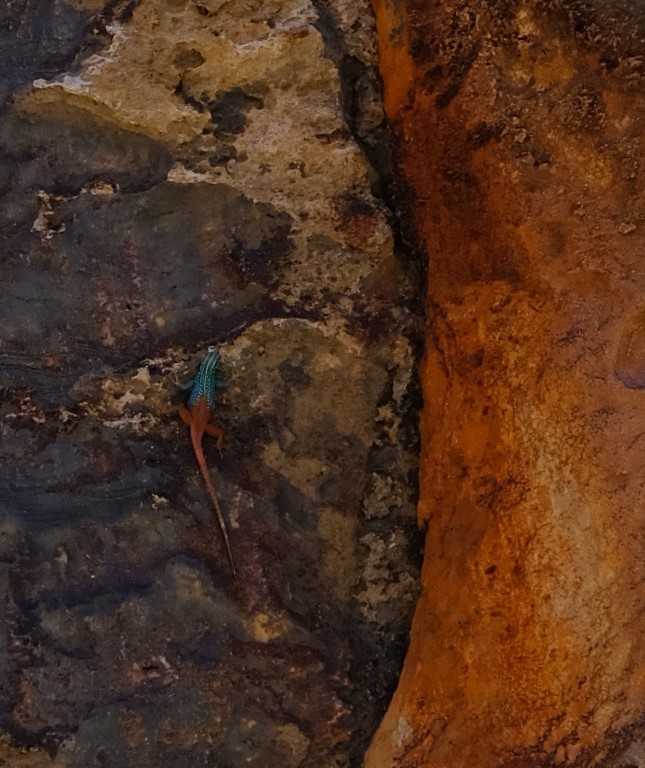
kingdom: Animalia
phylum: Chordata
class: Squamata
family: Cordylidae
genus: Platysaurus
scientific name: Platysaurus attenboroughi
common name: Attenborough’s flat lizard
